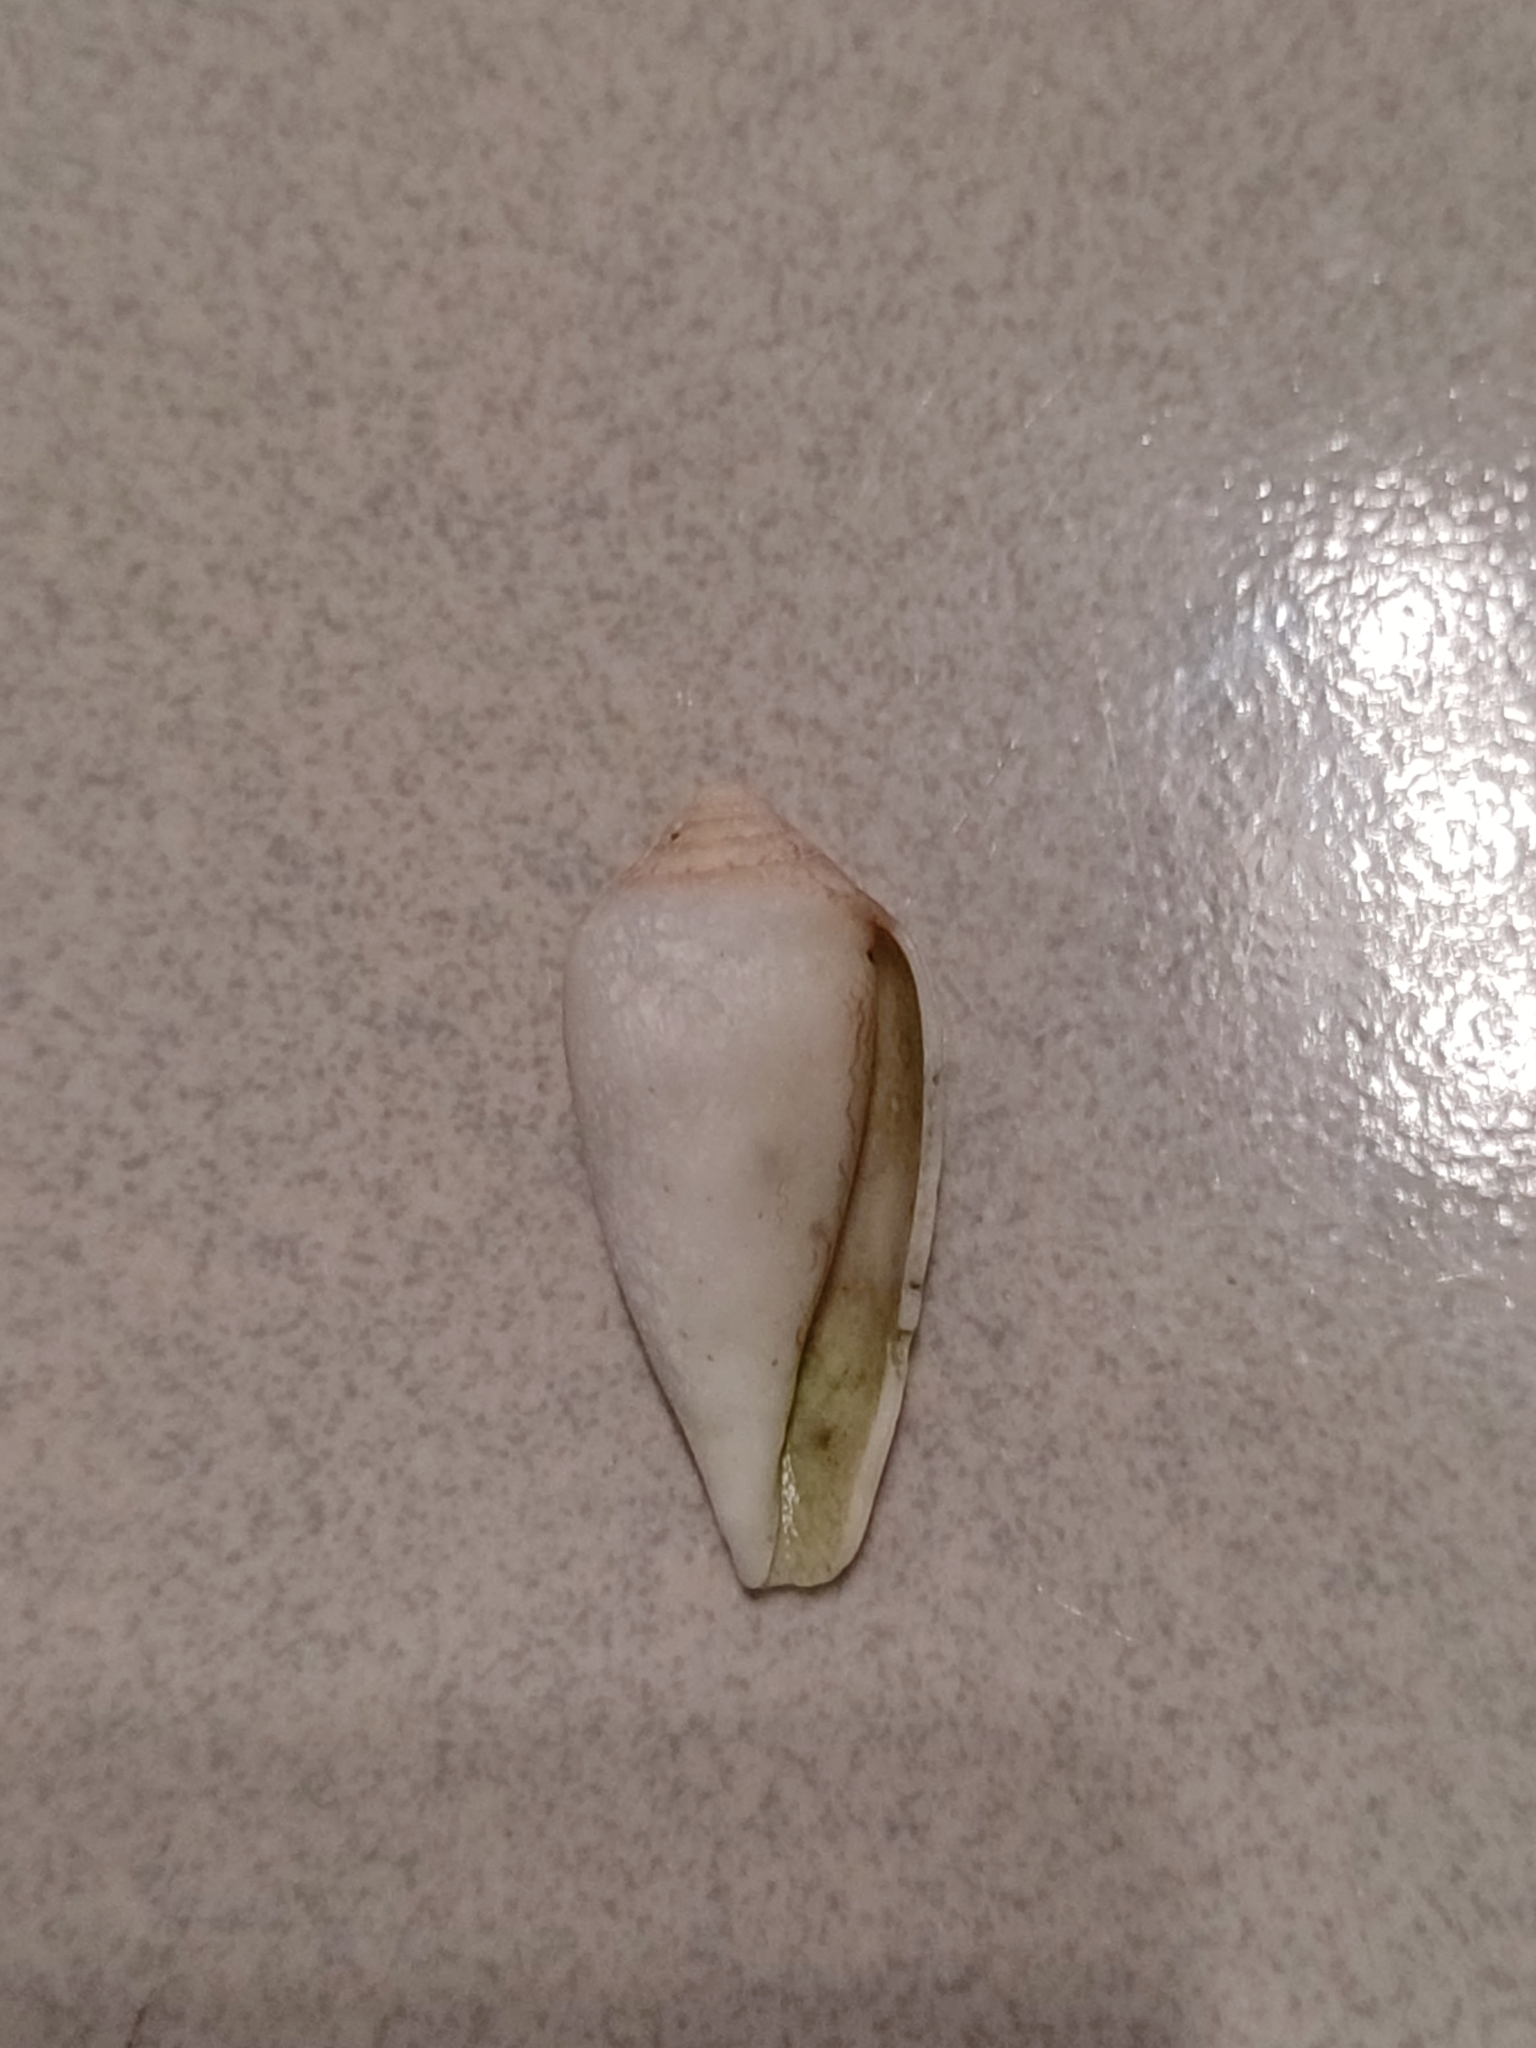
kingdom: Animalia
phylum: Mollusca
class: Gastropoda
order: Neogastropoda
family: Conidae
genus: Conus
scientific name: Conus textile
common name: Cloth-of-gold cone
